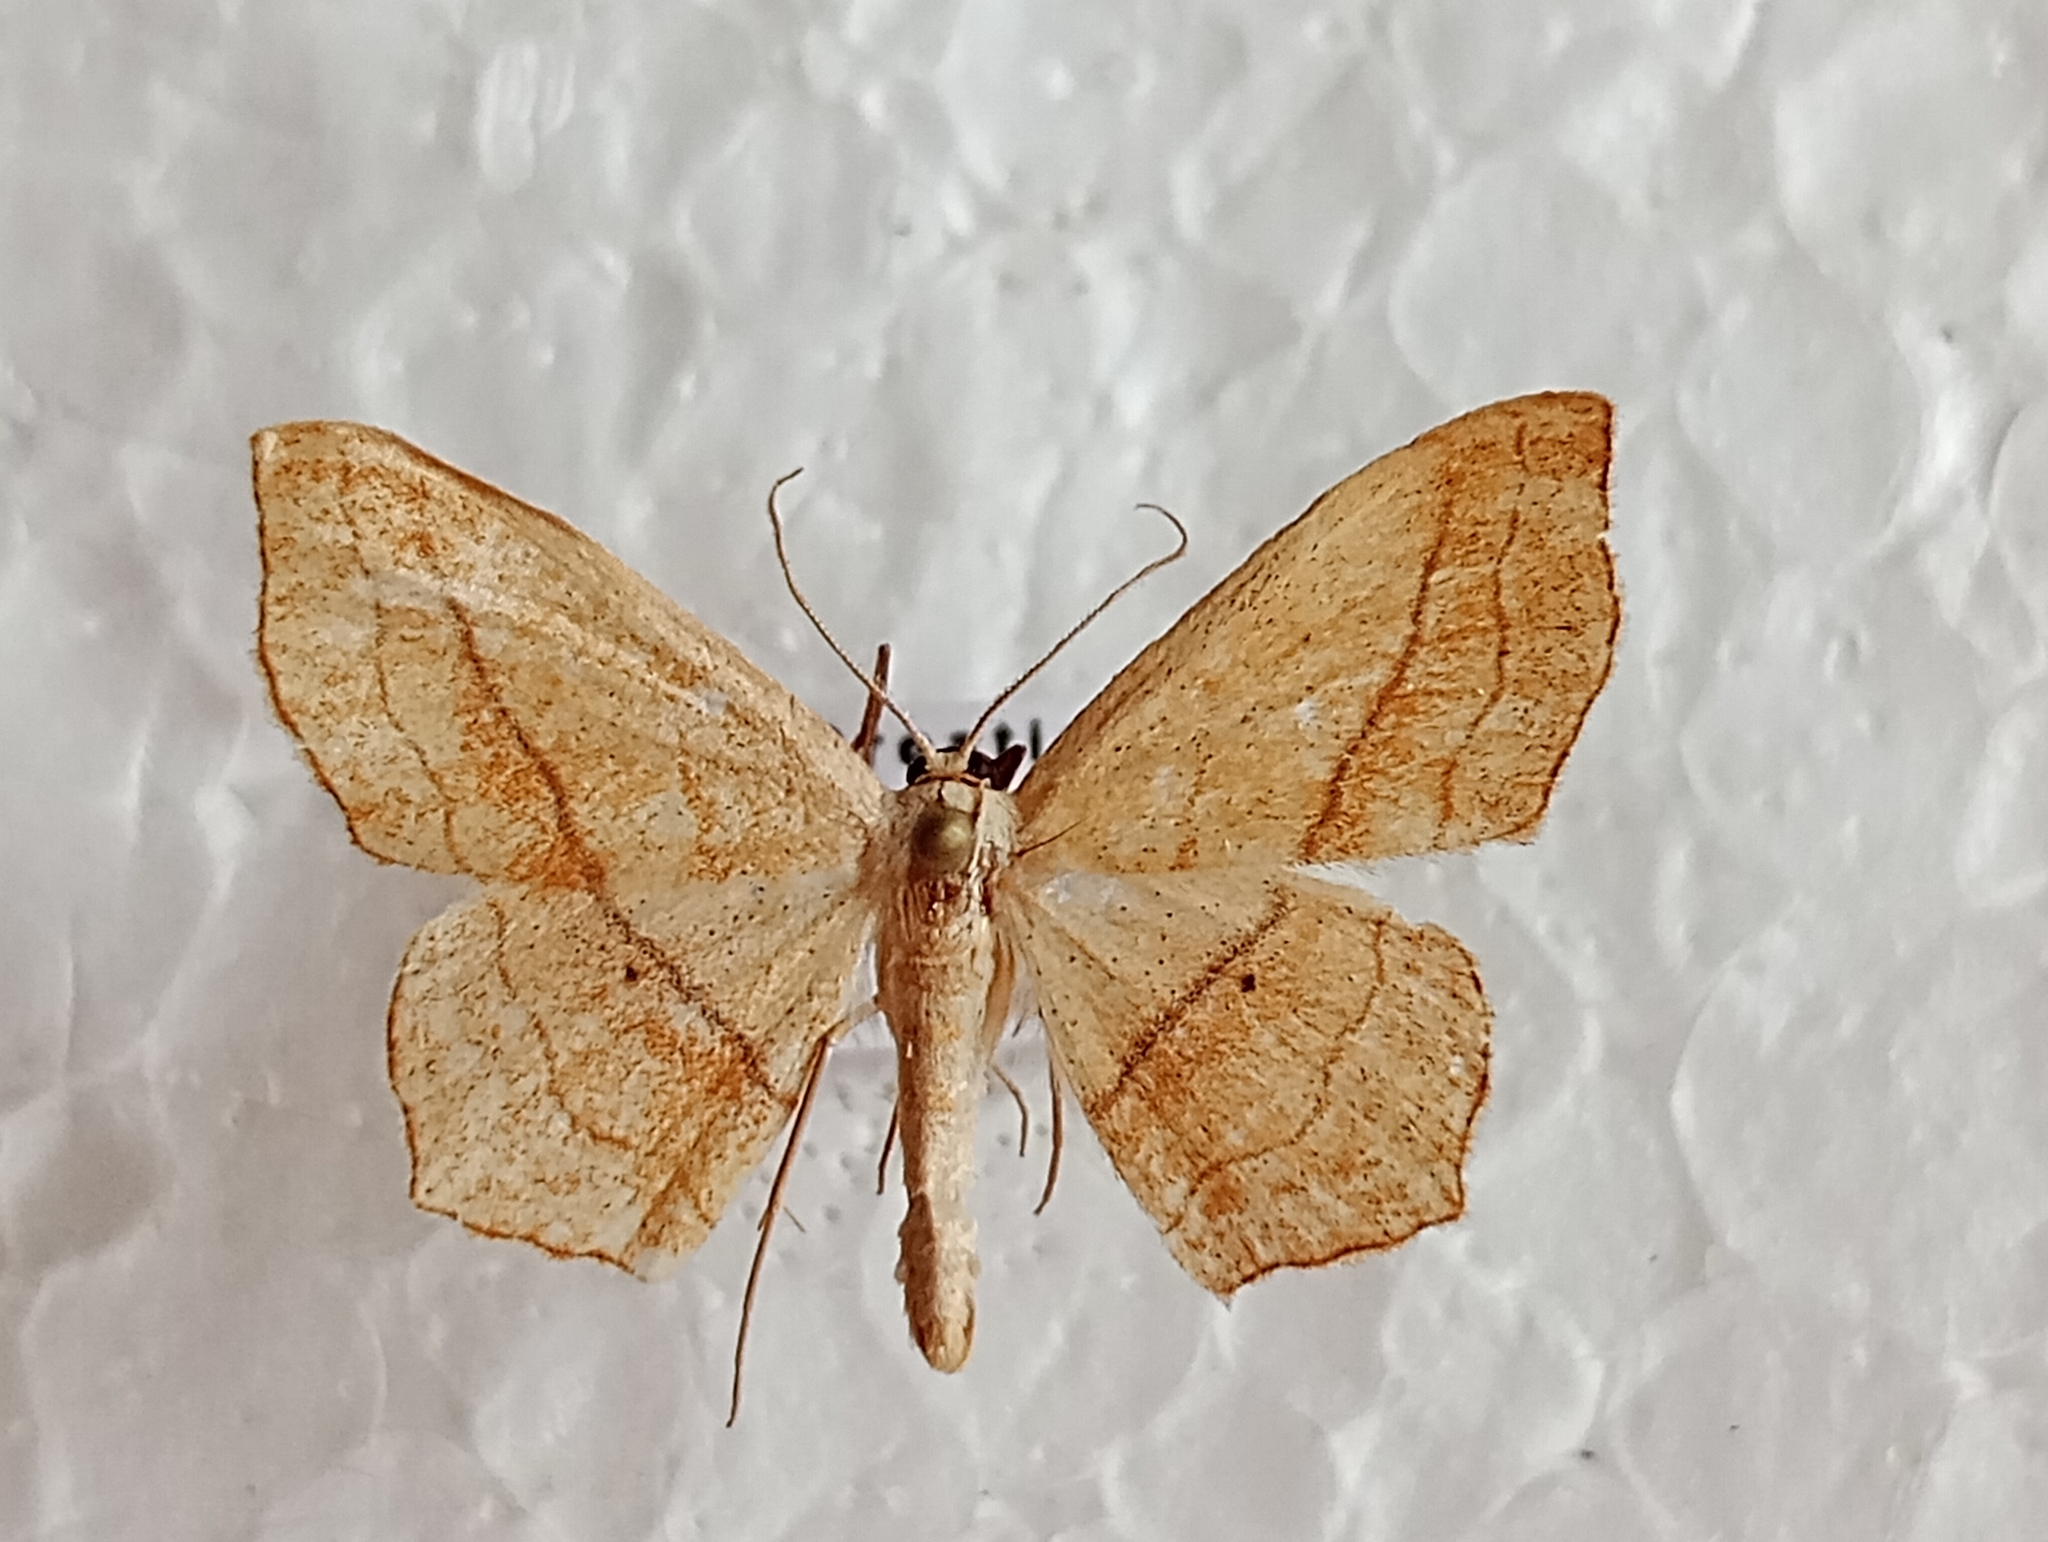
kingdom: Animalia
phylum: Arthropoda
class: Insecta
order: Lepidoptera
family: Geometridae
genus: Scopula
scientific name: Scopula imitaria
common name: Small blood-vein
